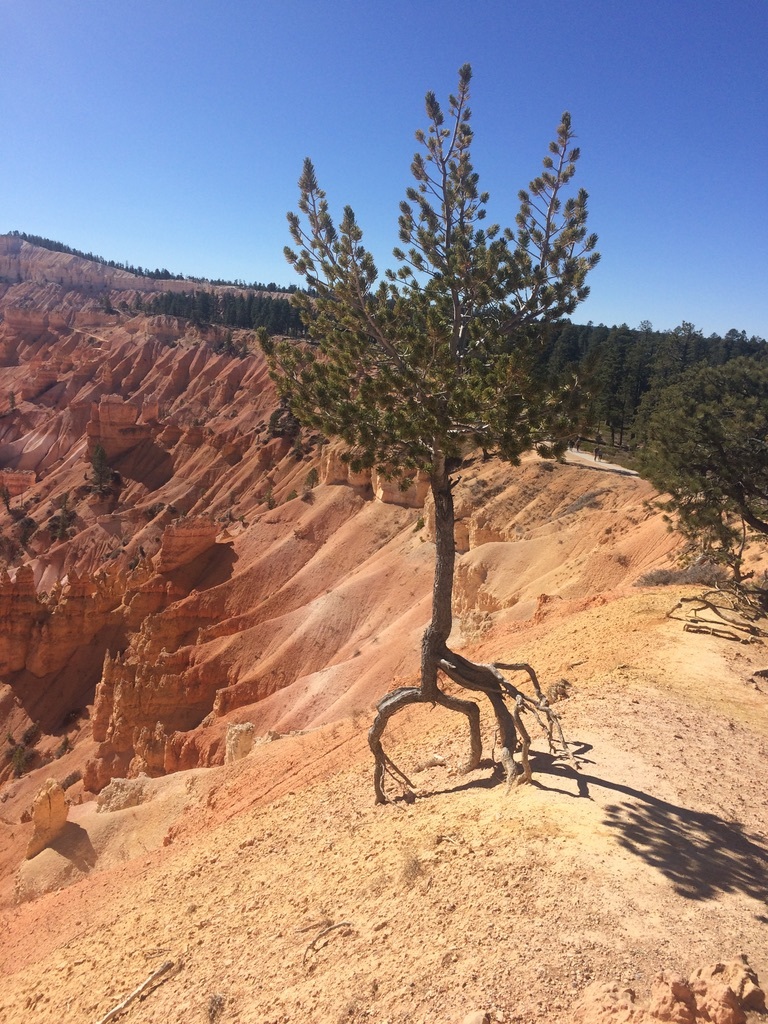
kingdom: Plantae
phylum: Tracheophyta
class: Pinopsida
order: Pinales
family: Pinaceae
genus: Pinus
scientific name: Pinus flexilis
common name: Limber pine
